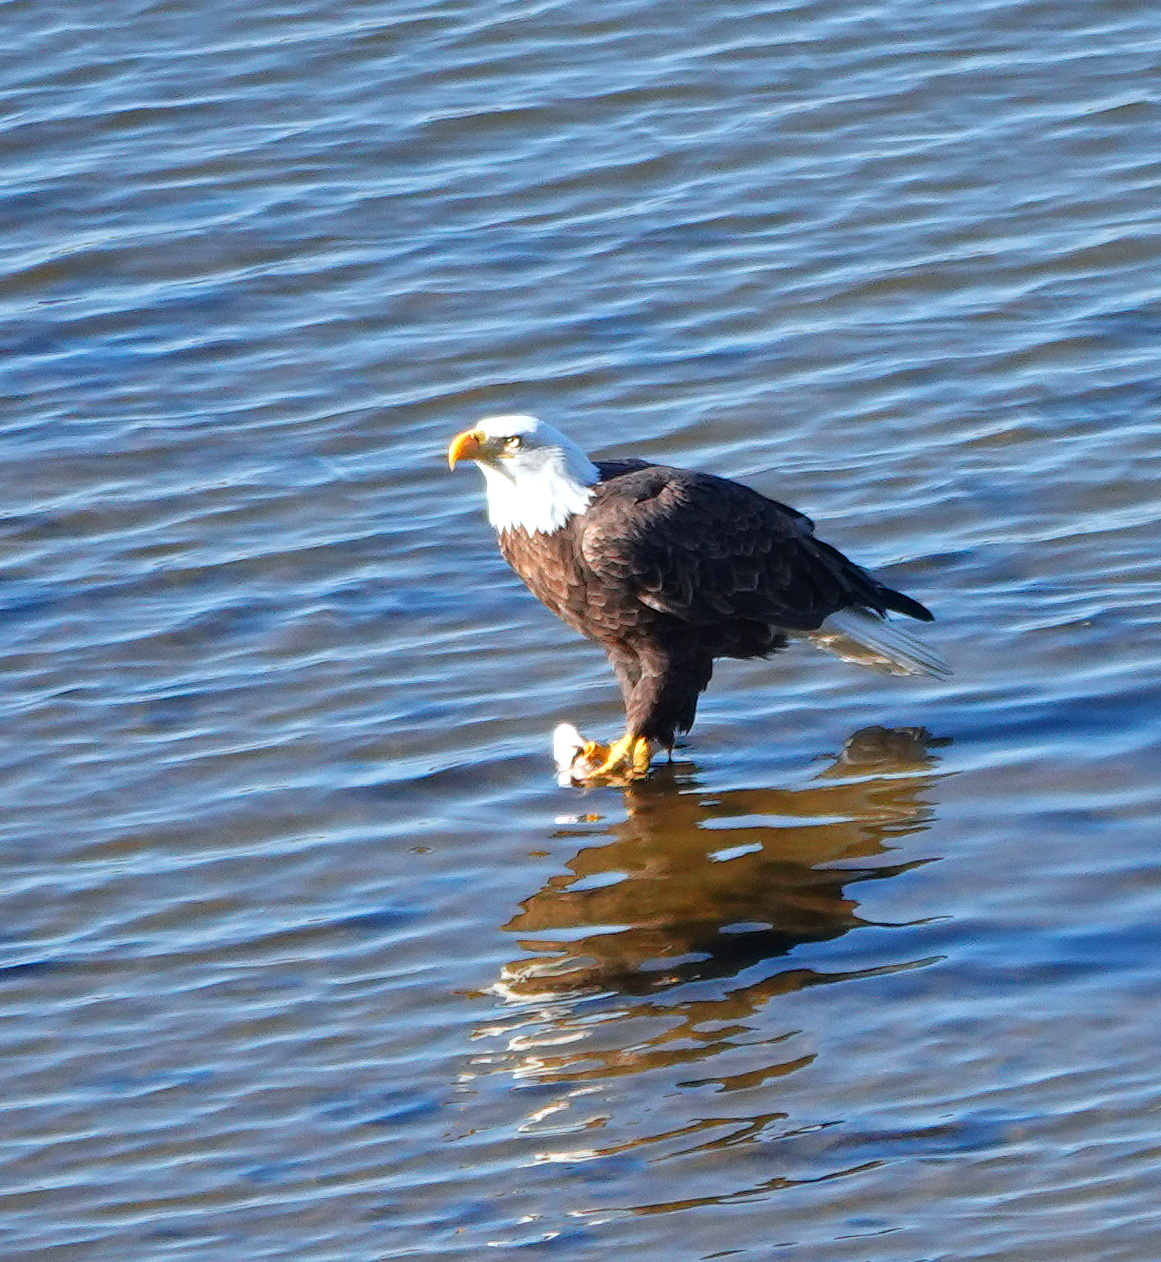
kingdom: Animalia
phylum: Chordata
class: Aves
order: Accipitriformes
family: Accipitridae
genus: Haliaeetus
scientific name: Haliaeetus leucocephalus
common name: Bald eagle
